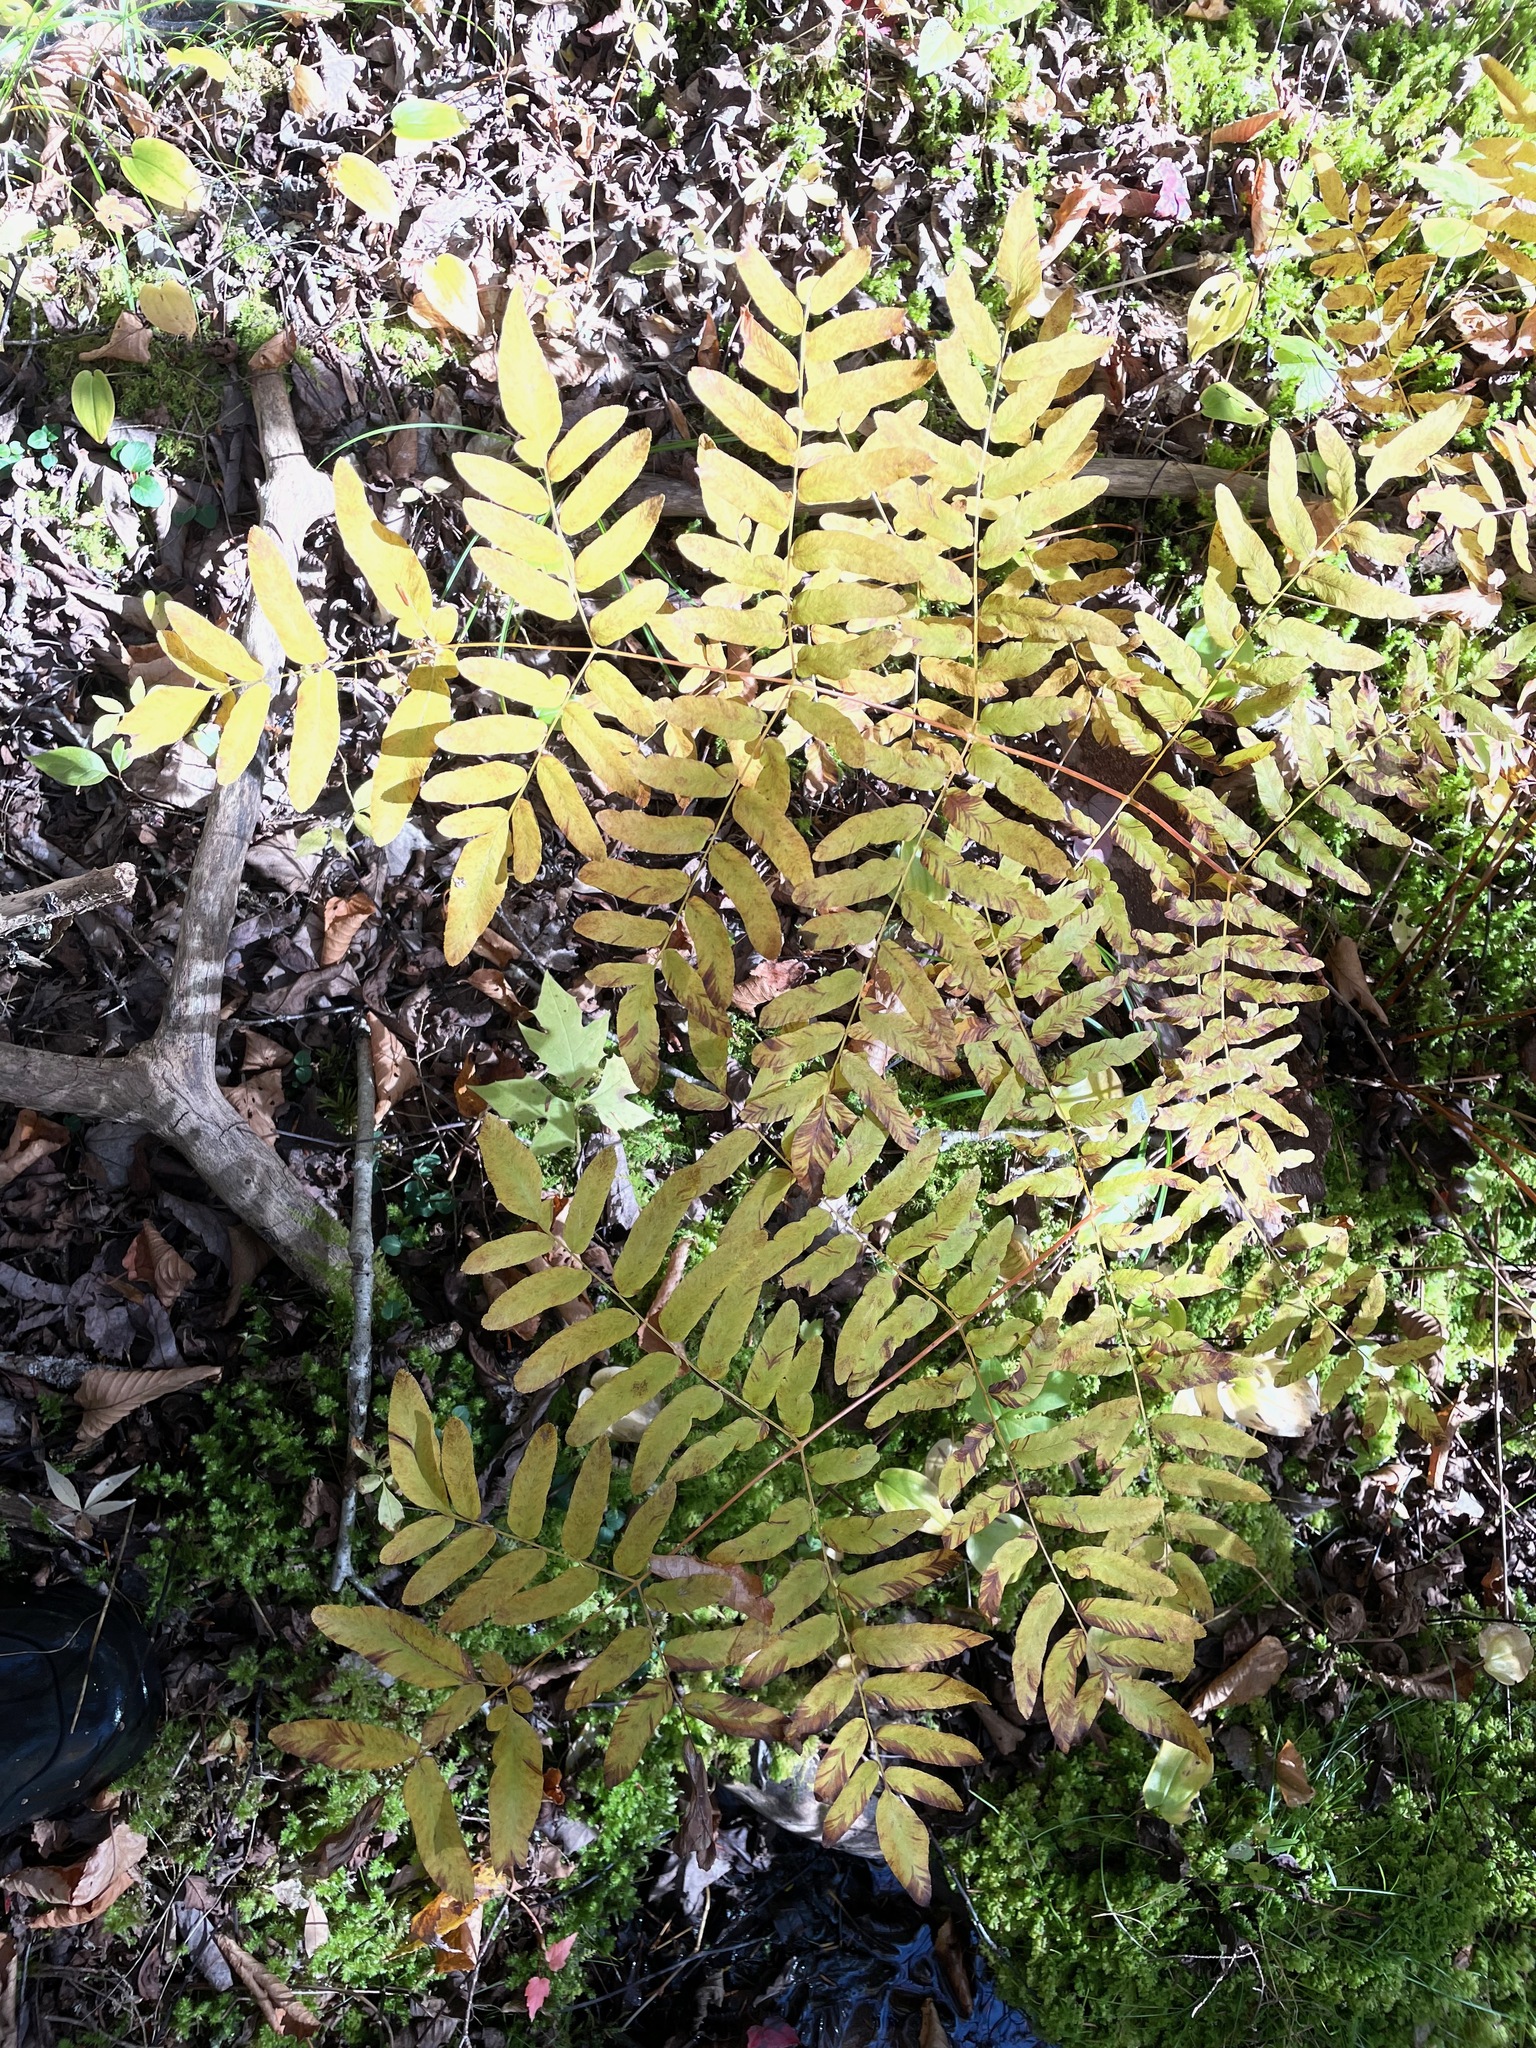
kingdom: Plantae
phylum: Tracheophyta
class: Polypodiopsida
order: Osmundales
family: Osmundaceae
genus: Osmunda
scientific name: Osmunda spectabilis
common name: American royal fern
